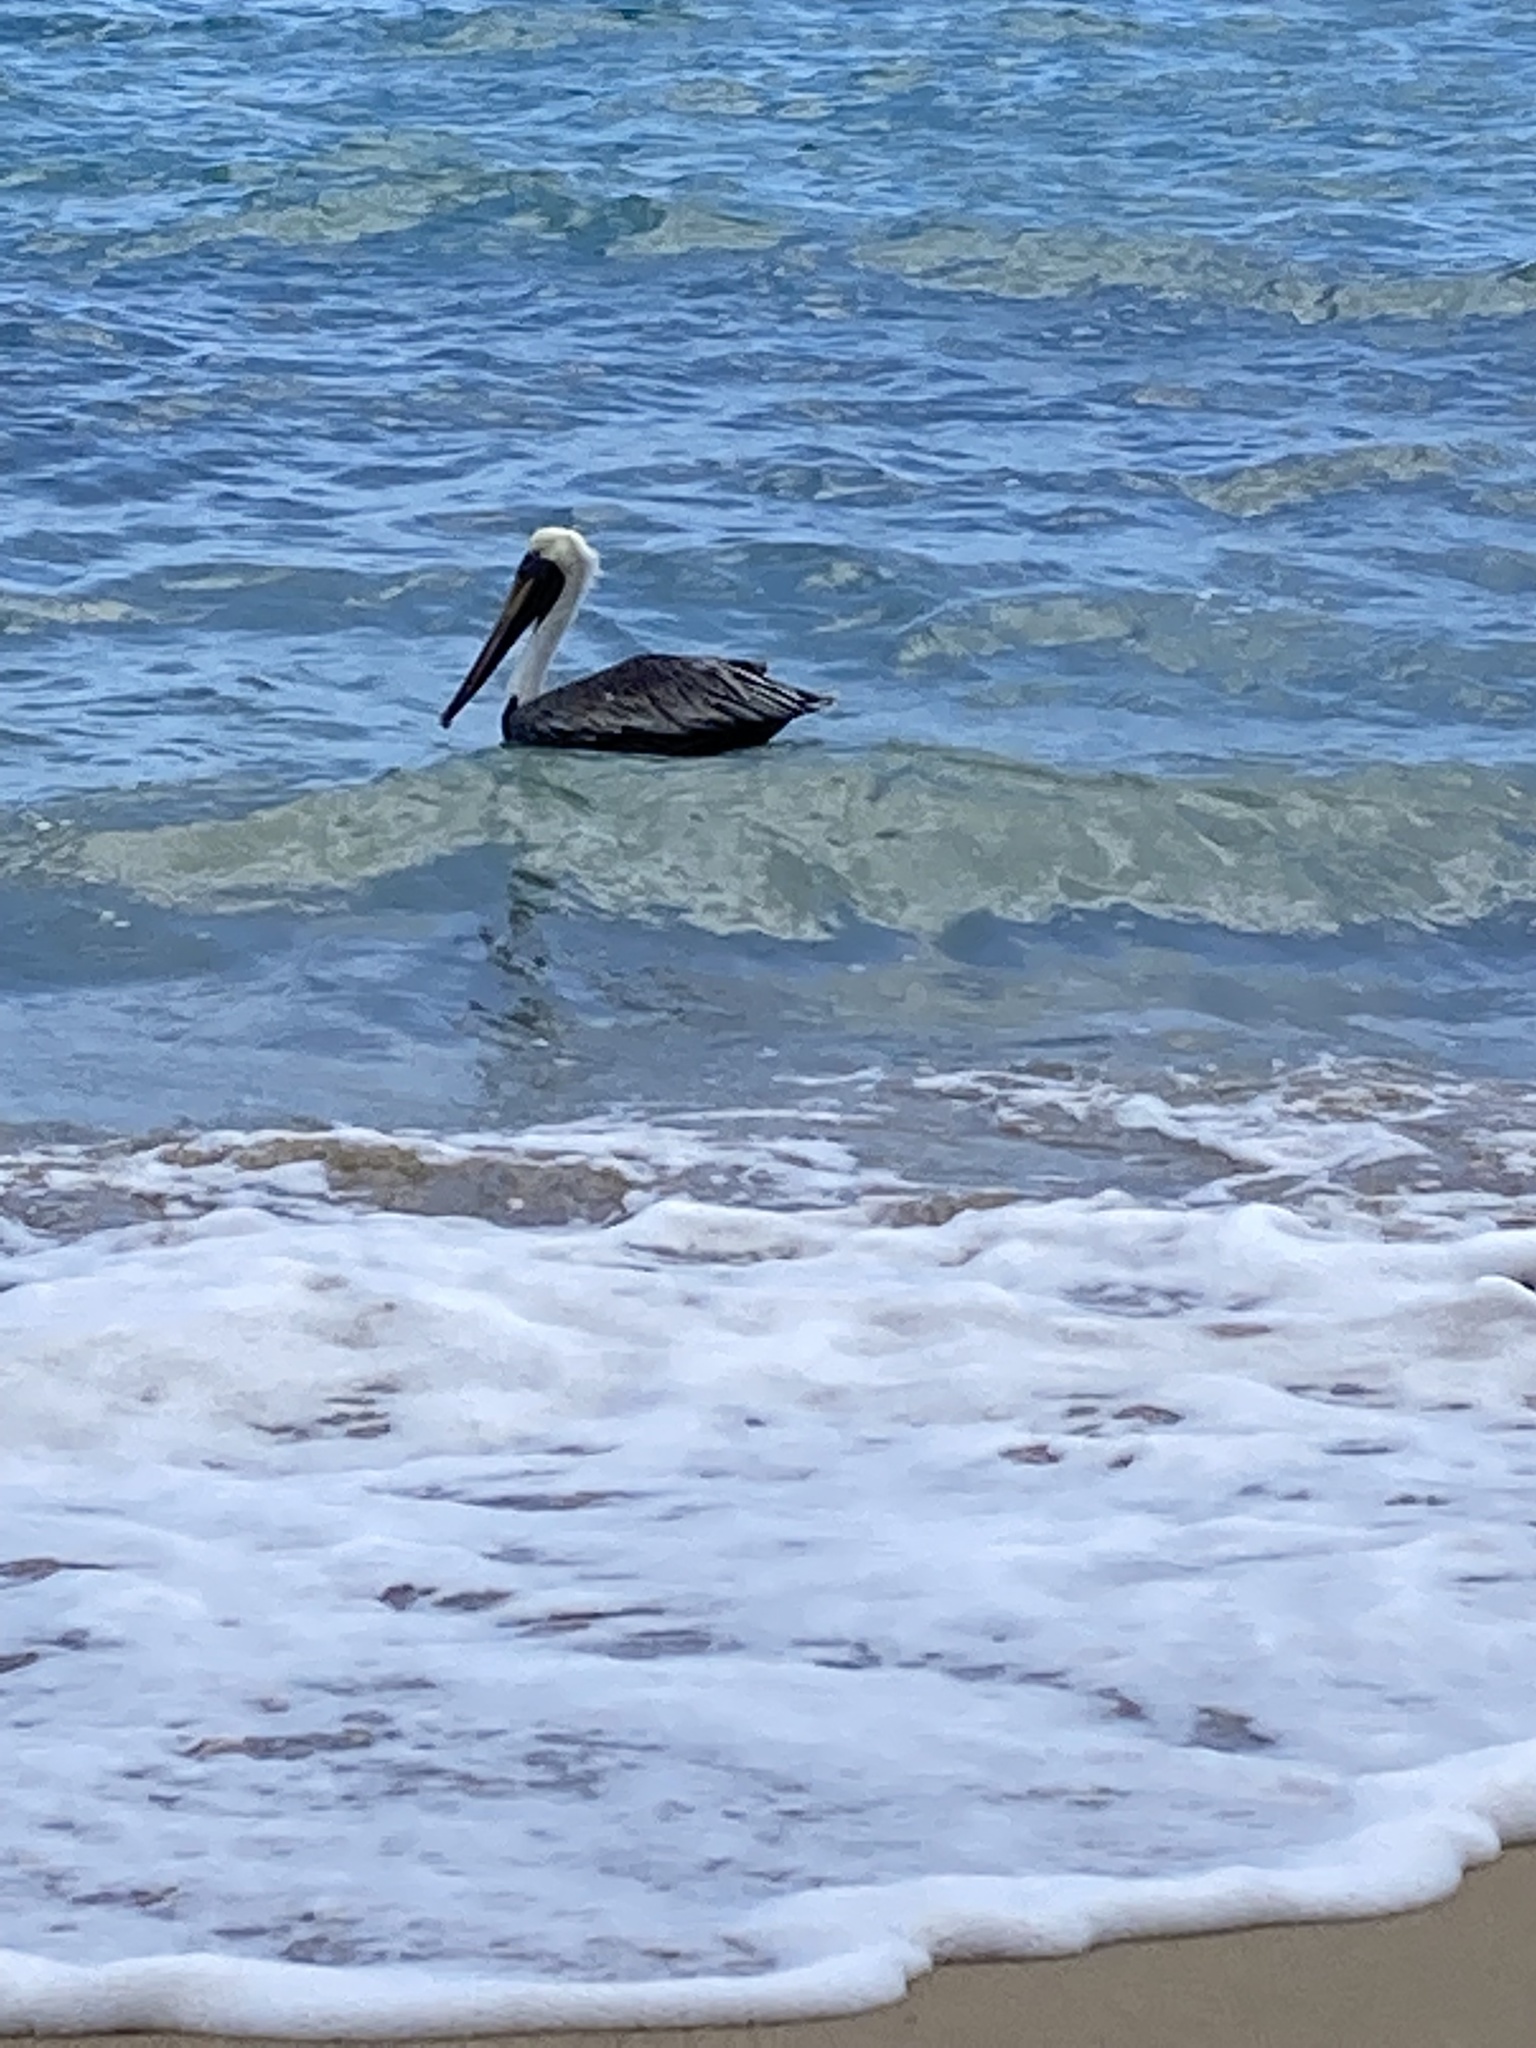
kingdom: Animalia
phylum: Chordata
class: Aves
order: Pelecaniformes
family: Pelecanidae
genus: Pelecanus
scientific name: Pelecanus occidentalis
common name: Brown pelican
